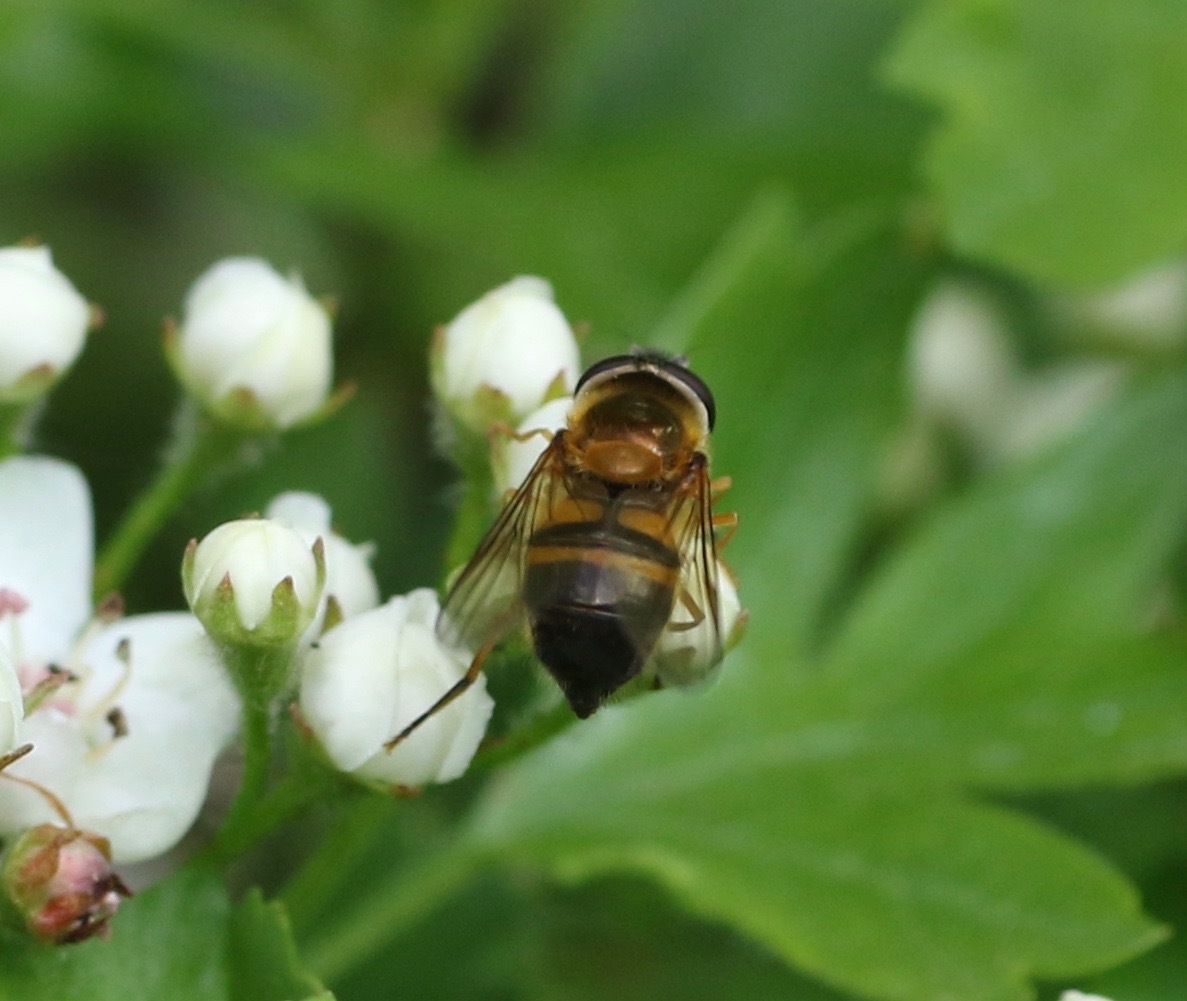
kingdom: Animalia
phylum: Arthropoda
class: Insecta
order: Diptera
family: Syrphidae
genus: Epistrophe
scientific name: Epistrophe eligans
